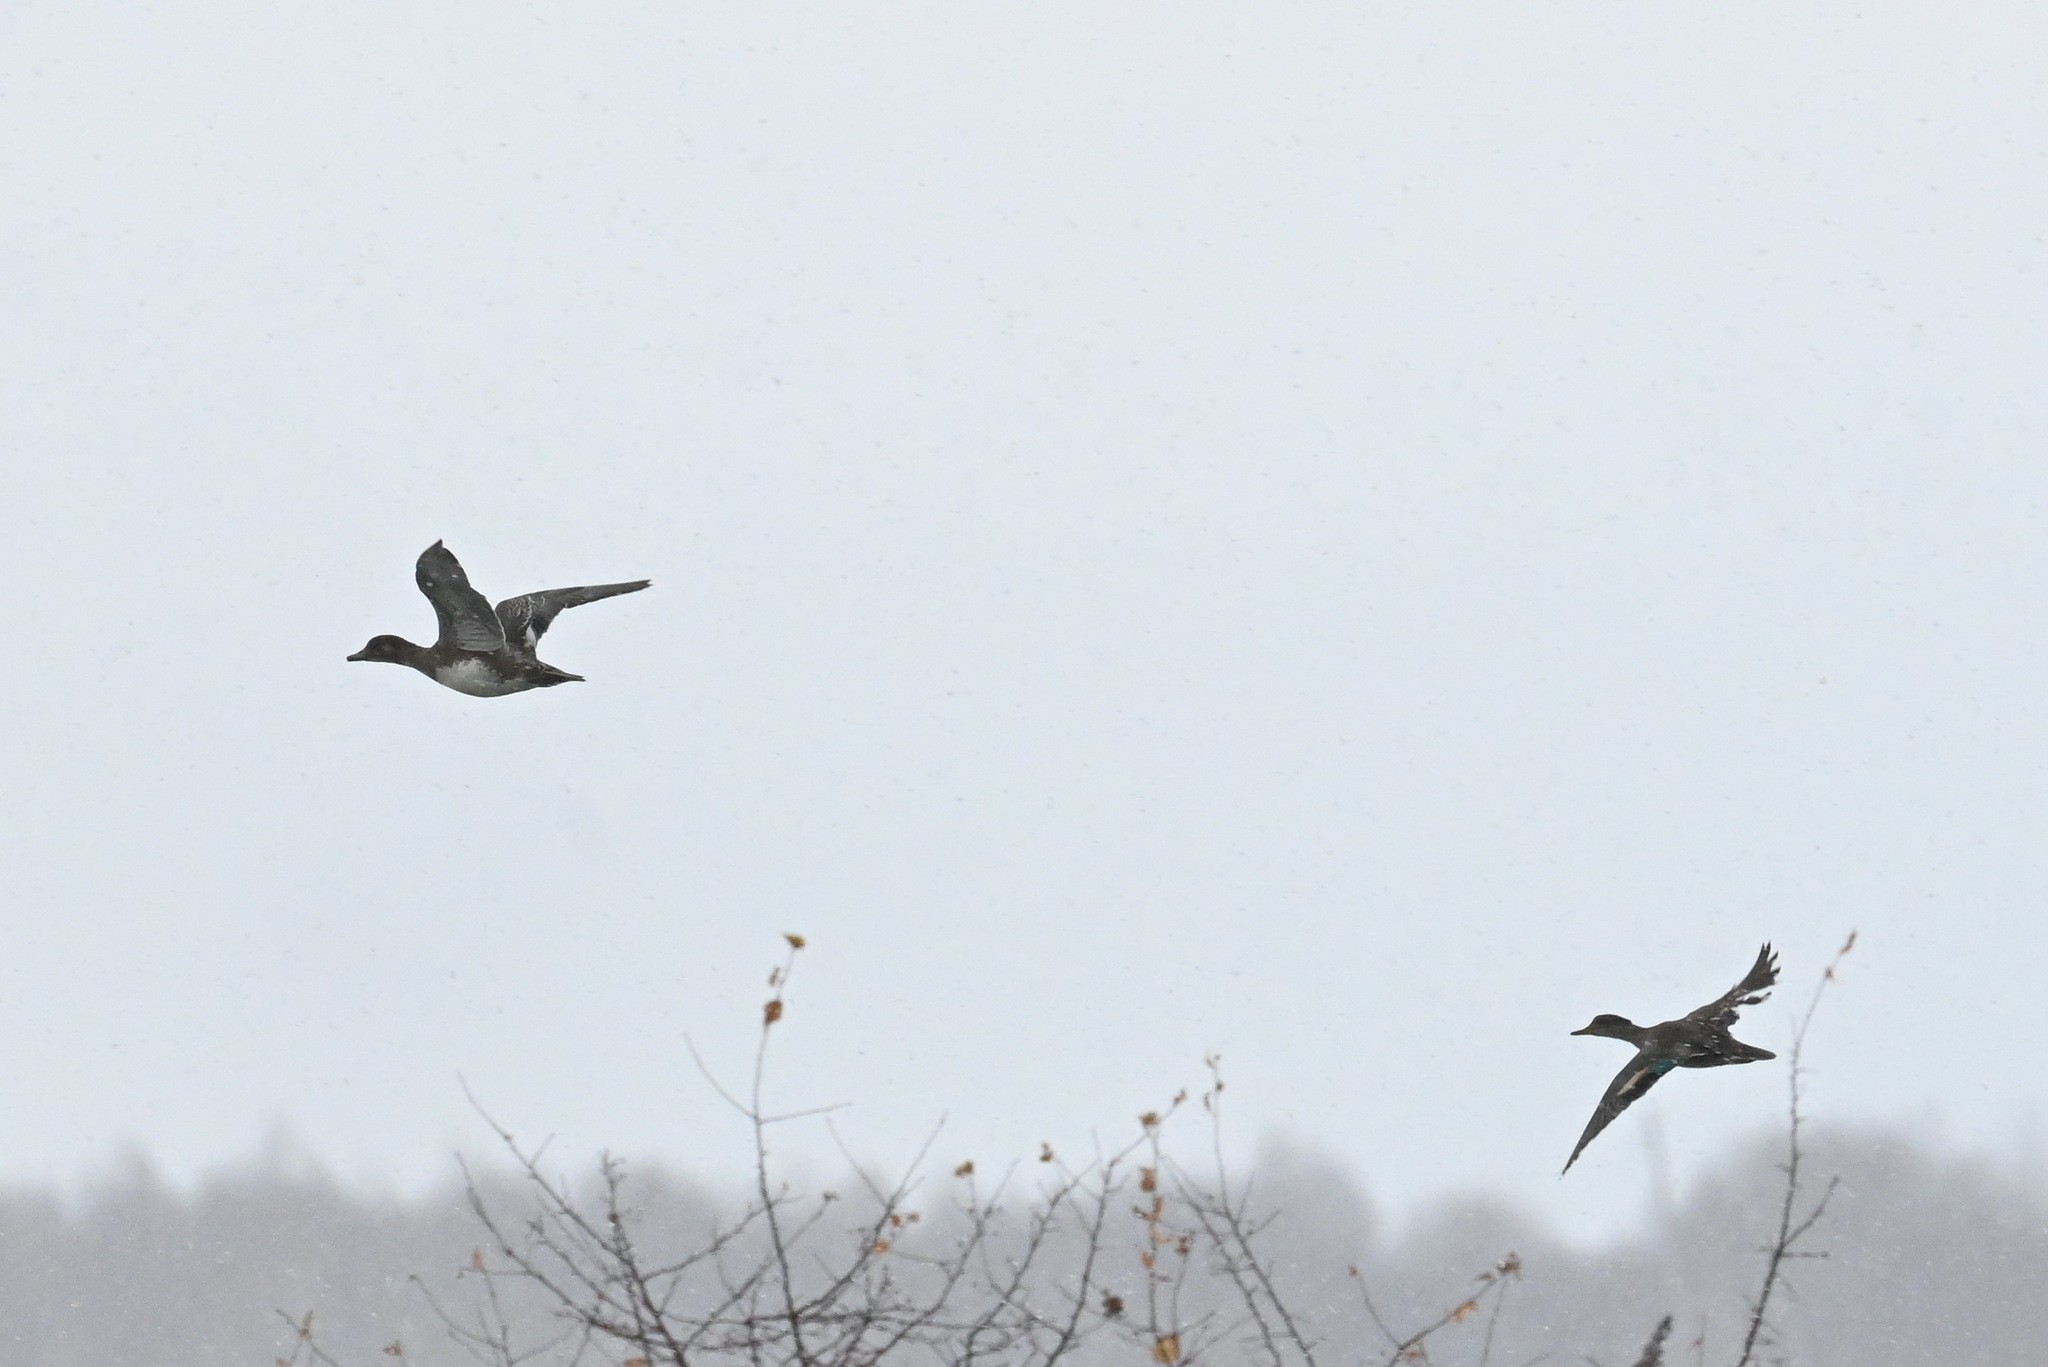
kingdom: Animalia
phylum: Chordata
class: Aves
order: Anseriformes
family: Anatidae
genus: Anas
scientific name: Anas crecca
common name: Eurasian teal
